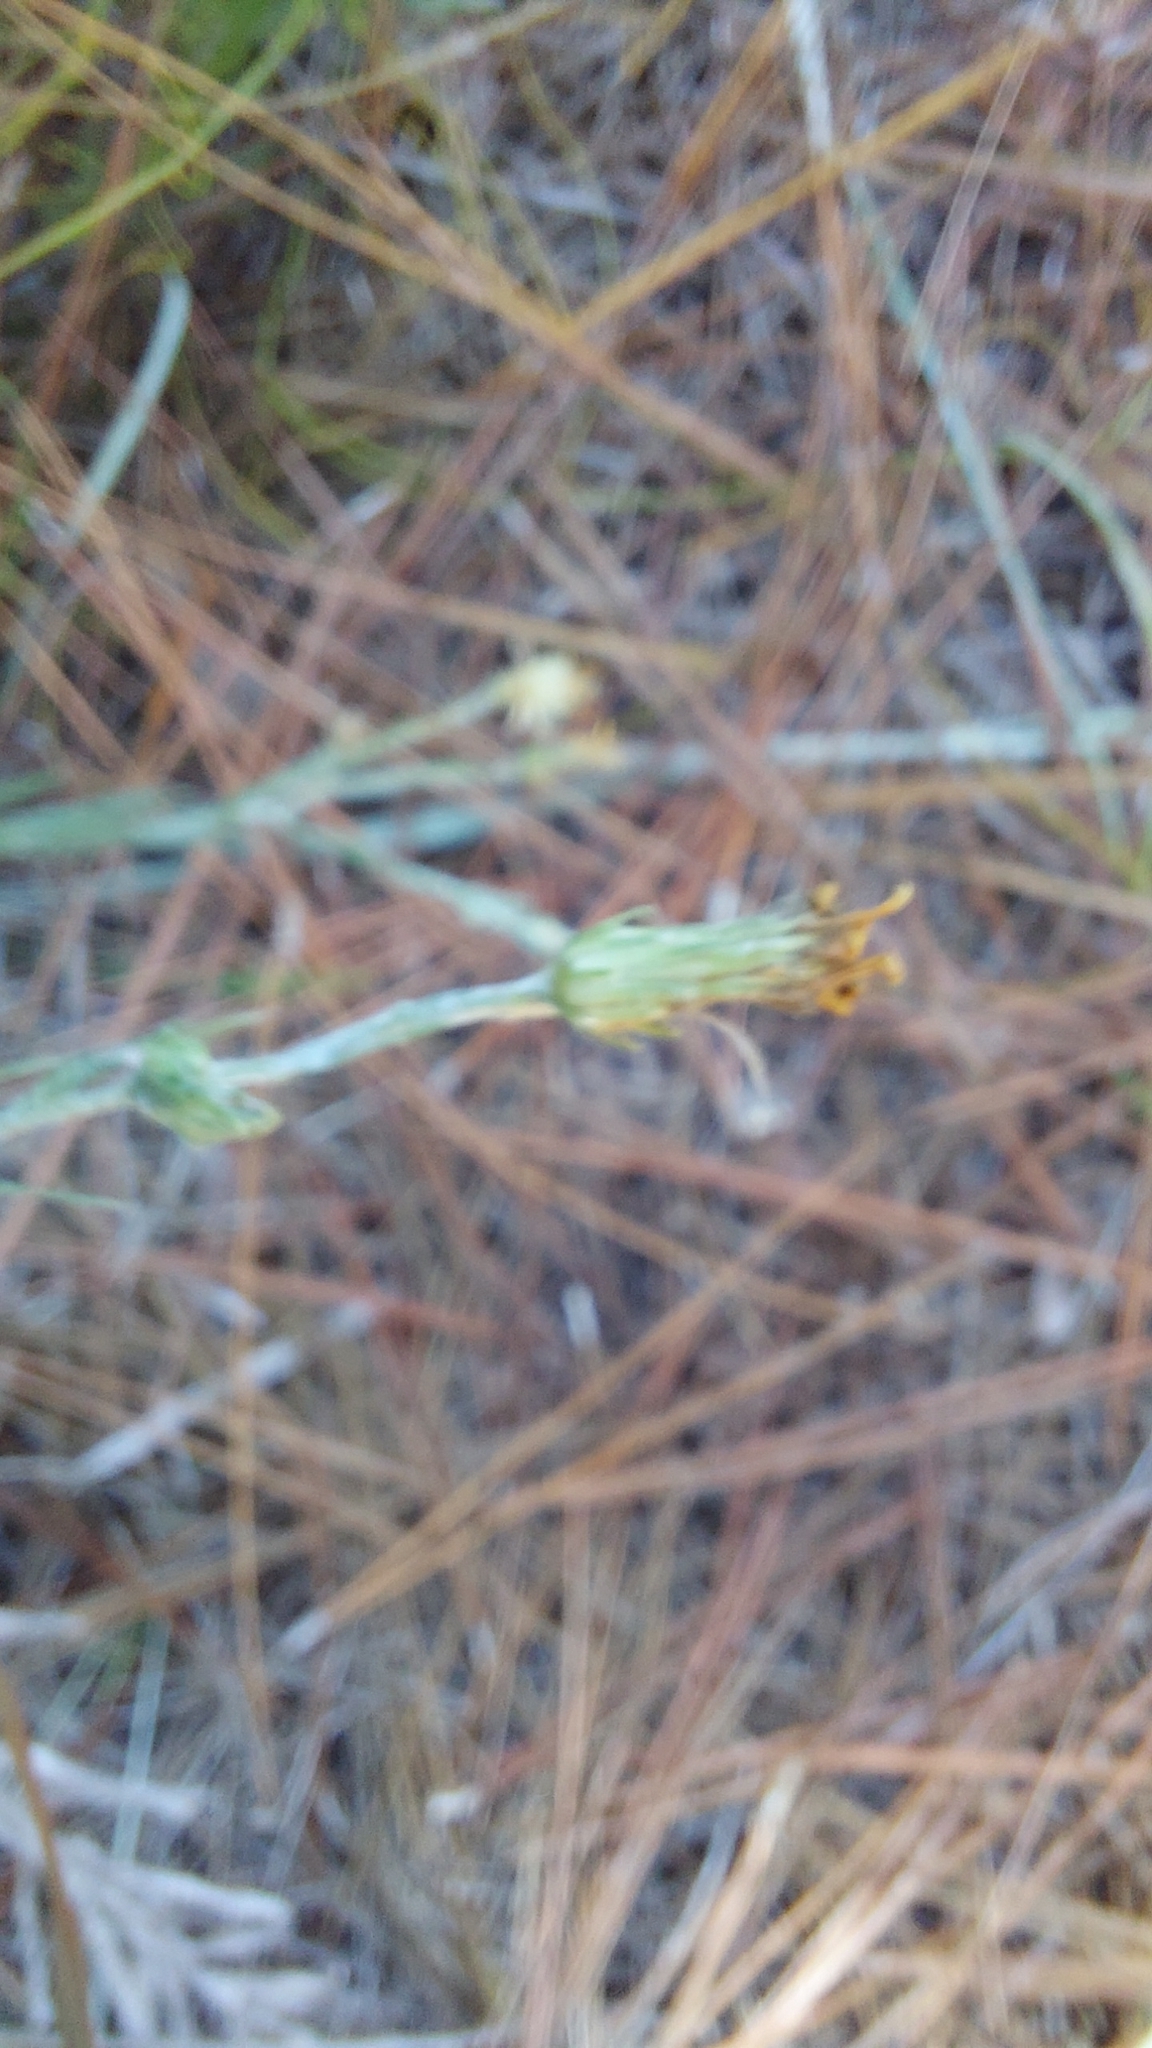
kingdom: Plantae
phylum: Tracheophyta
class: Magnoliopsida
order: Asterales
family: Asteraceae
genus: Pityopsis
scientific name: Pityopsis aequilifolia
